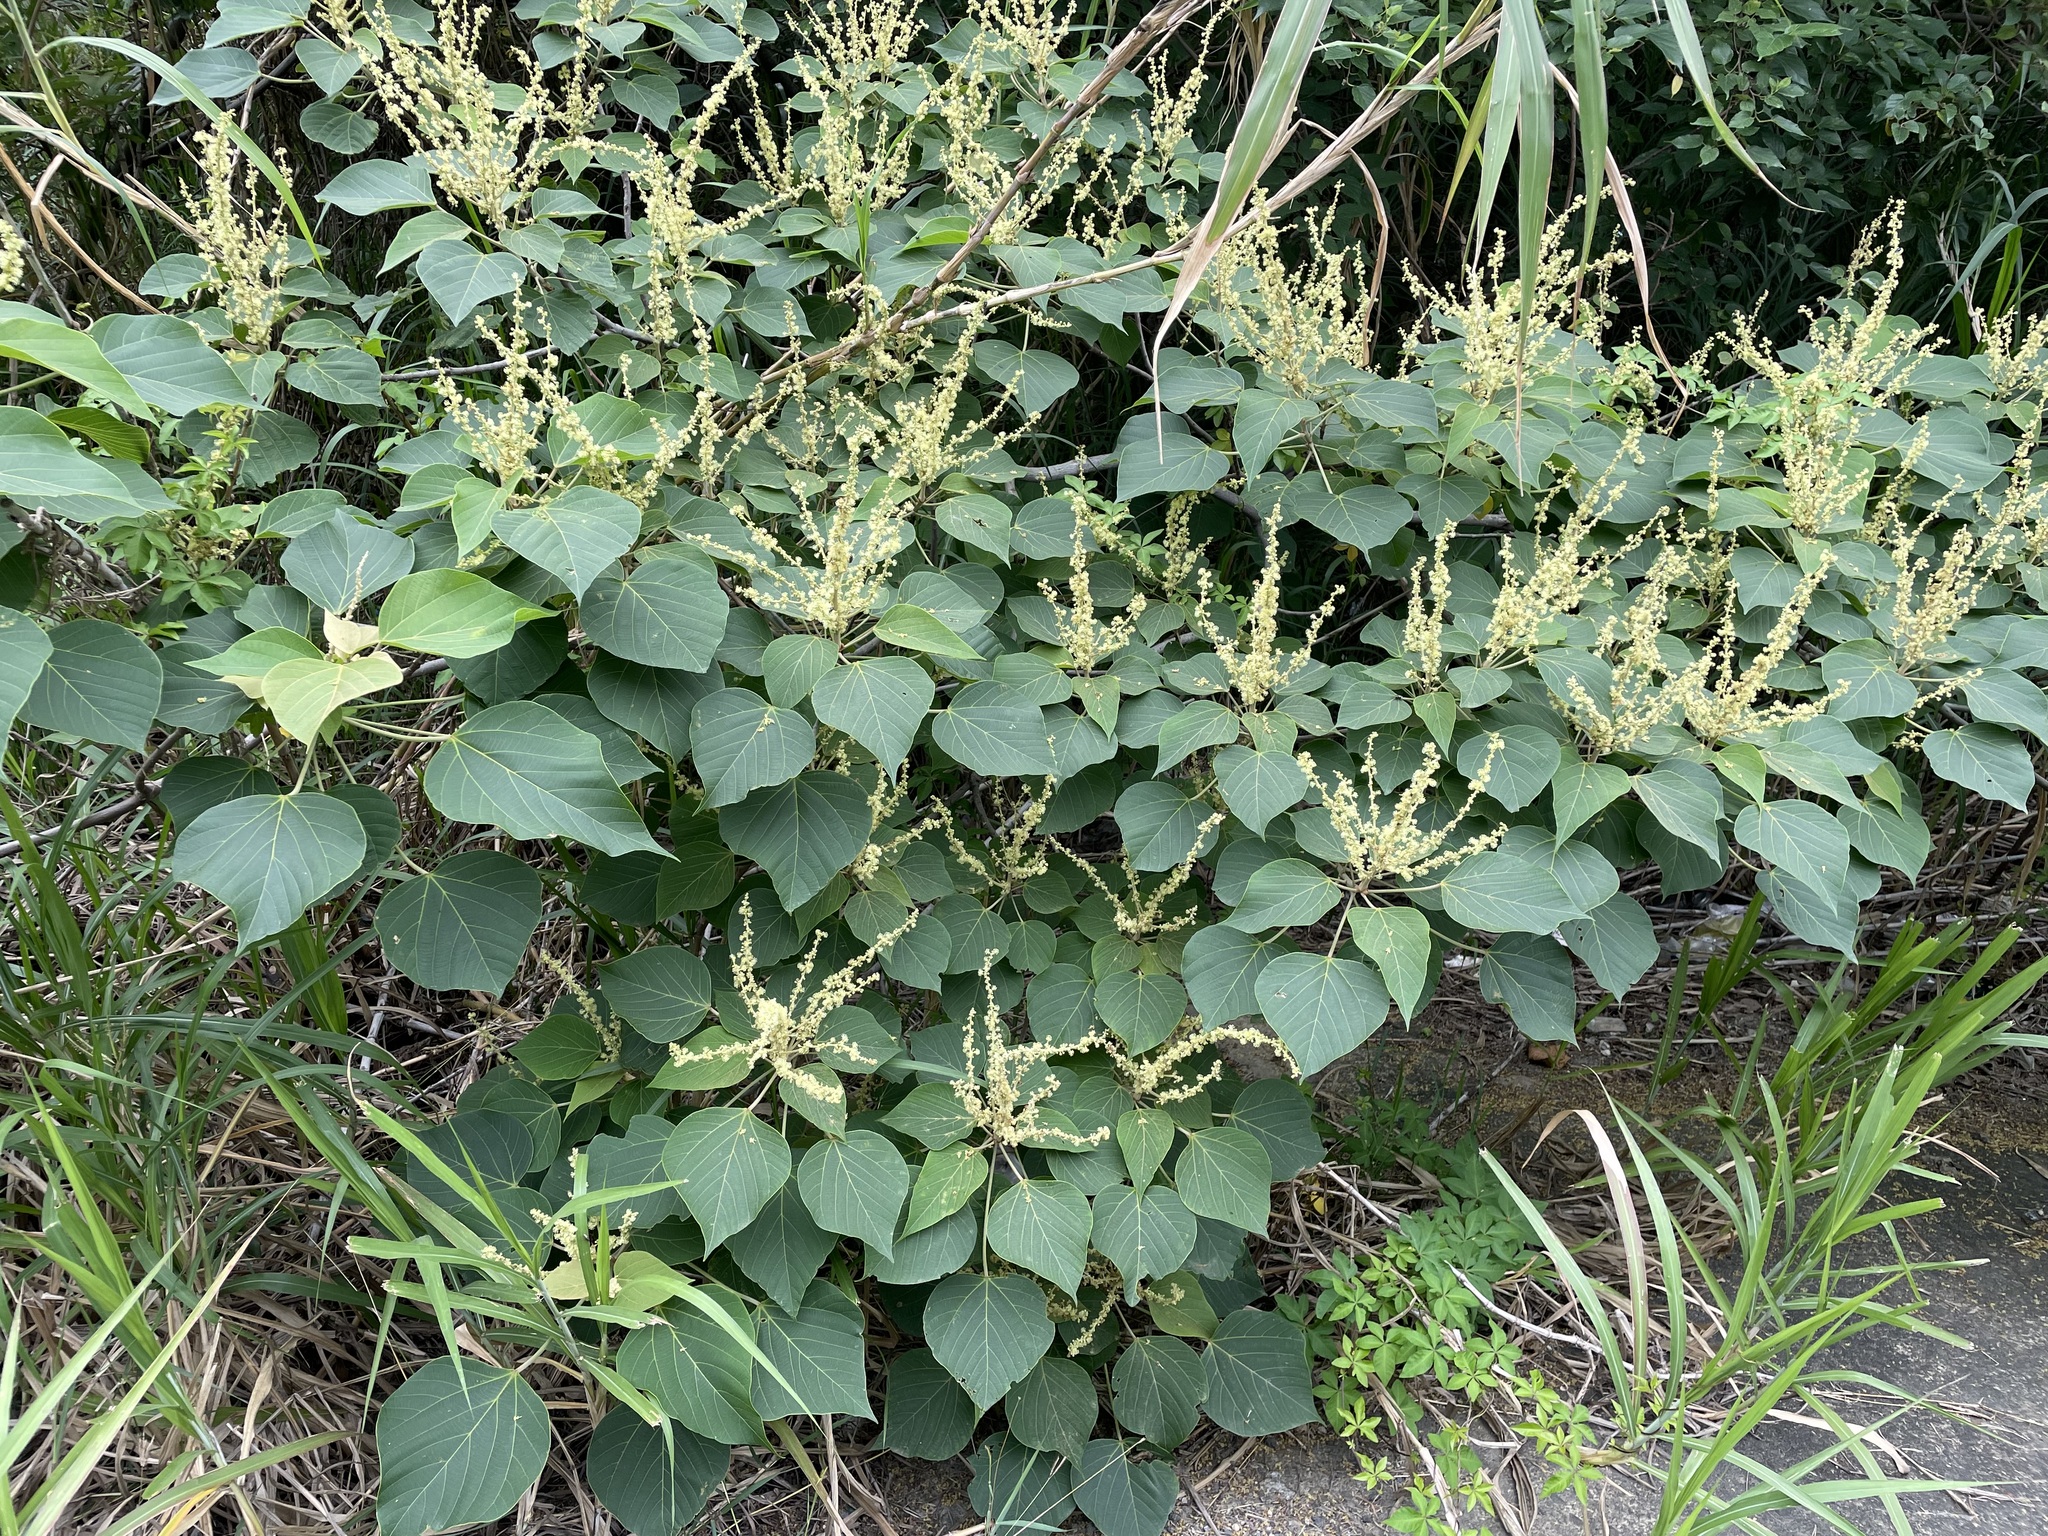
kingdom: Plantae
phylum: Tracheophyta
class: Magnoliopsida
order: Malpighiales
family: Euphorbiaceae
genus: Mallotus
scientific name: Mallotus japonicus
